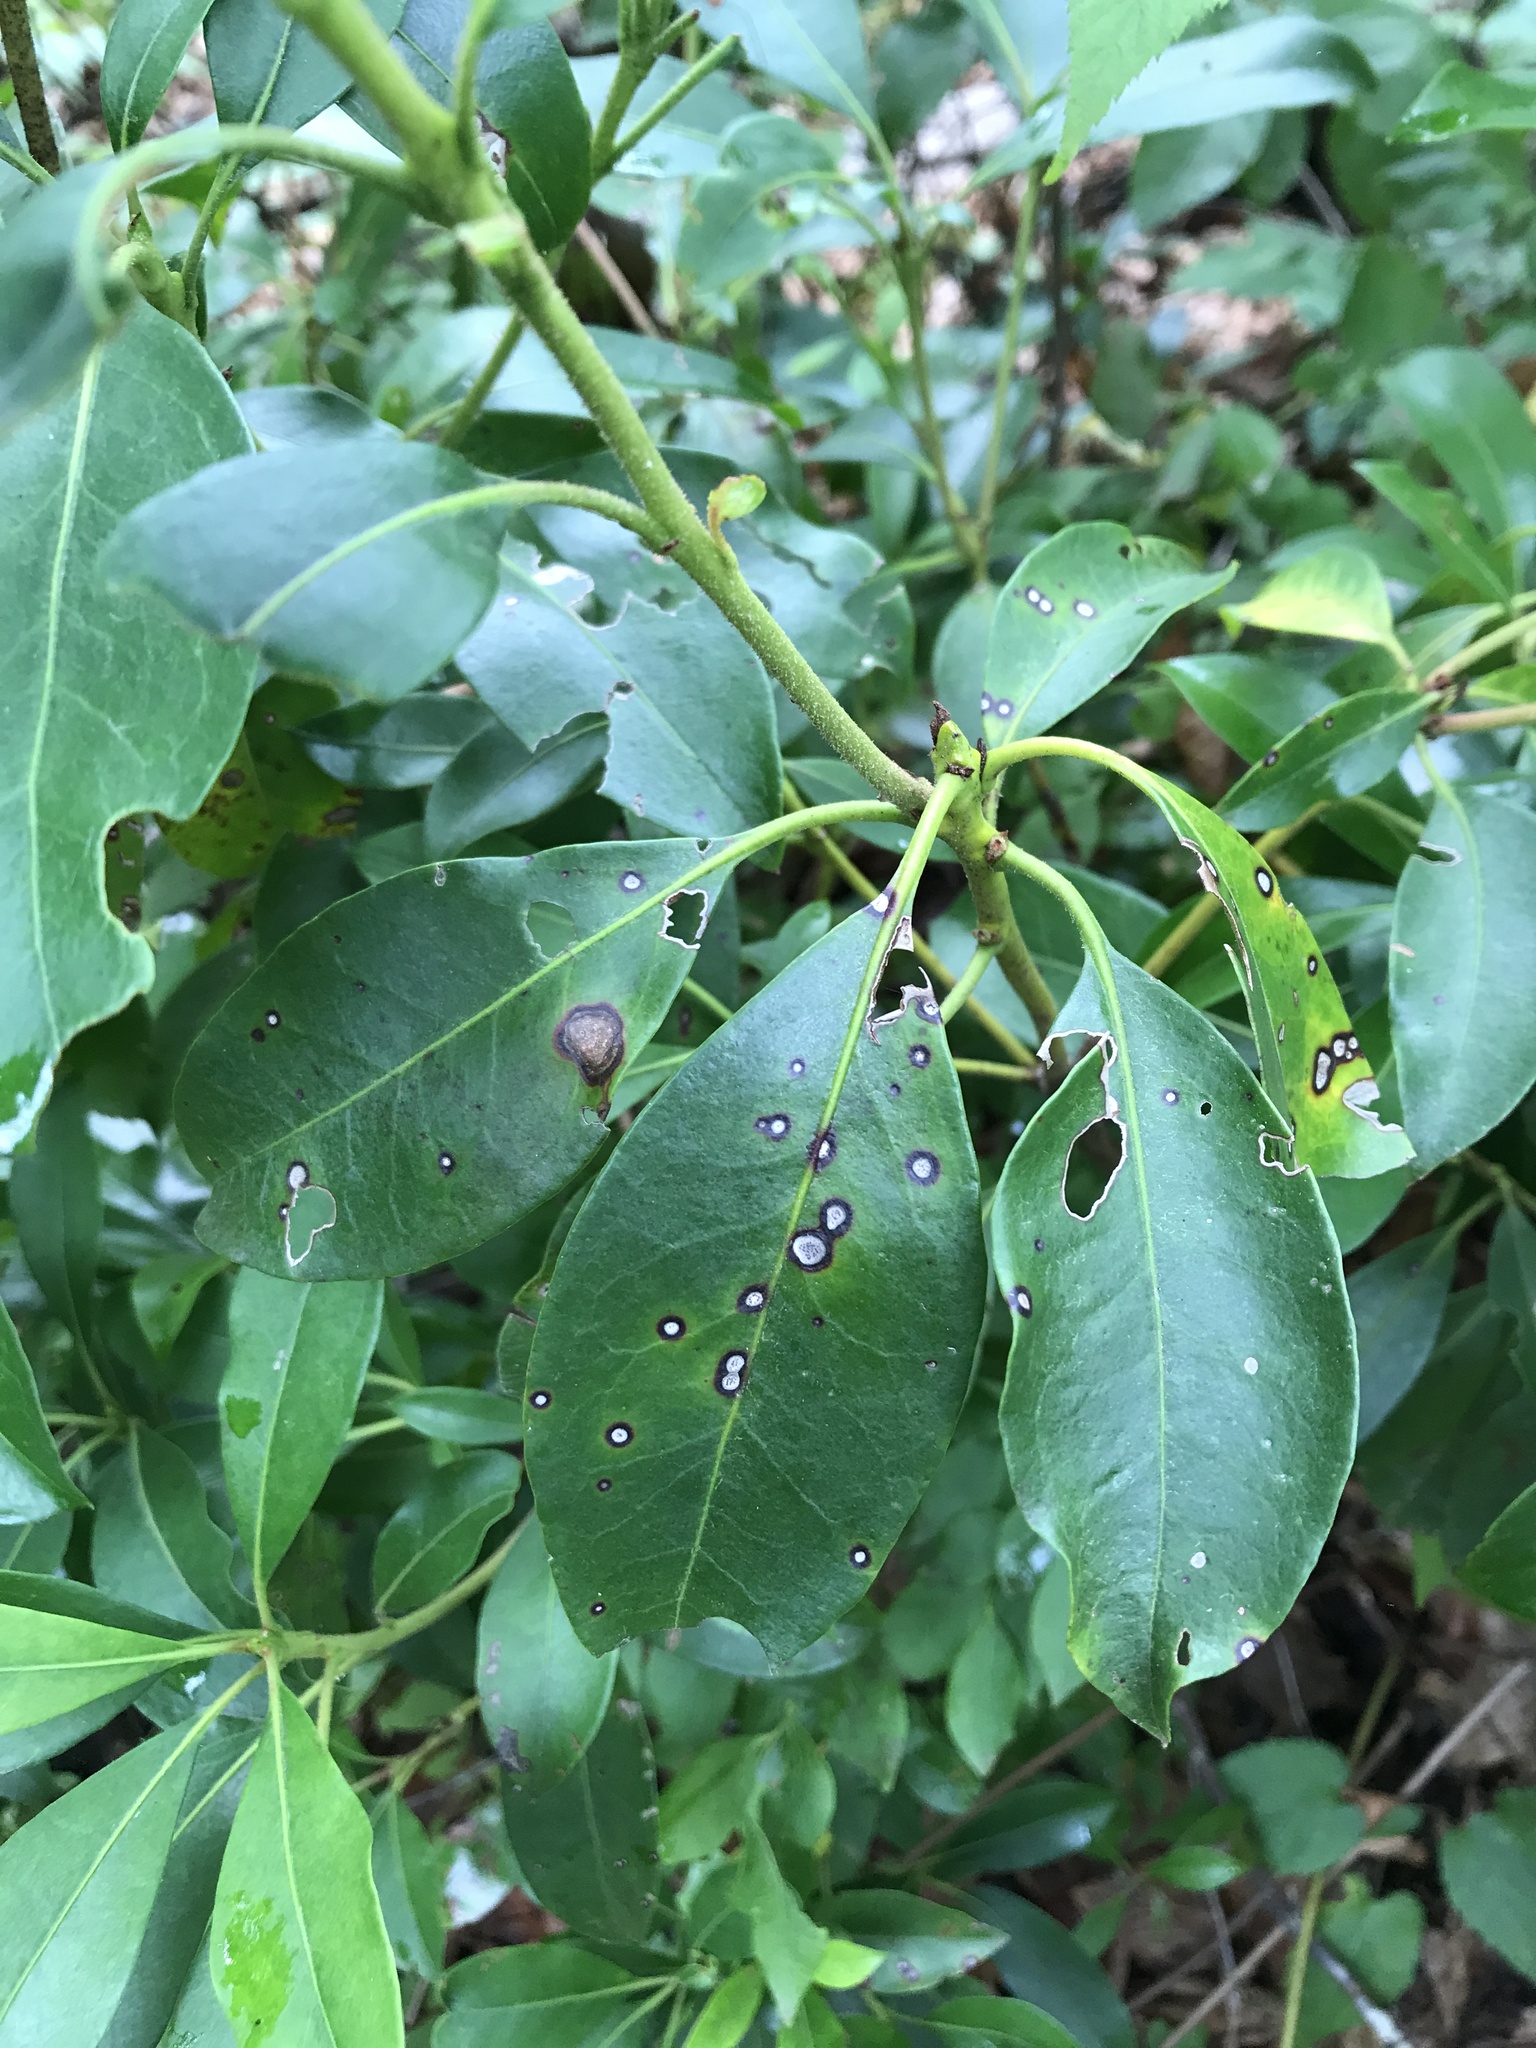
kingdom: Fungi
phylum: Ascomycota
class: Dothideomycetes
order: Mycosphaerellales
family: Mycosphaerellaceae
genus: Mycosphaerella
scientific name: Mycosphaerella colorata
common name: Mountain laurel leaf spot
